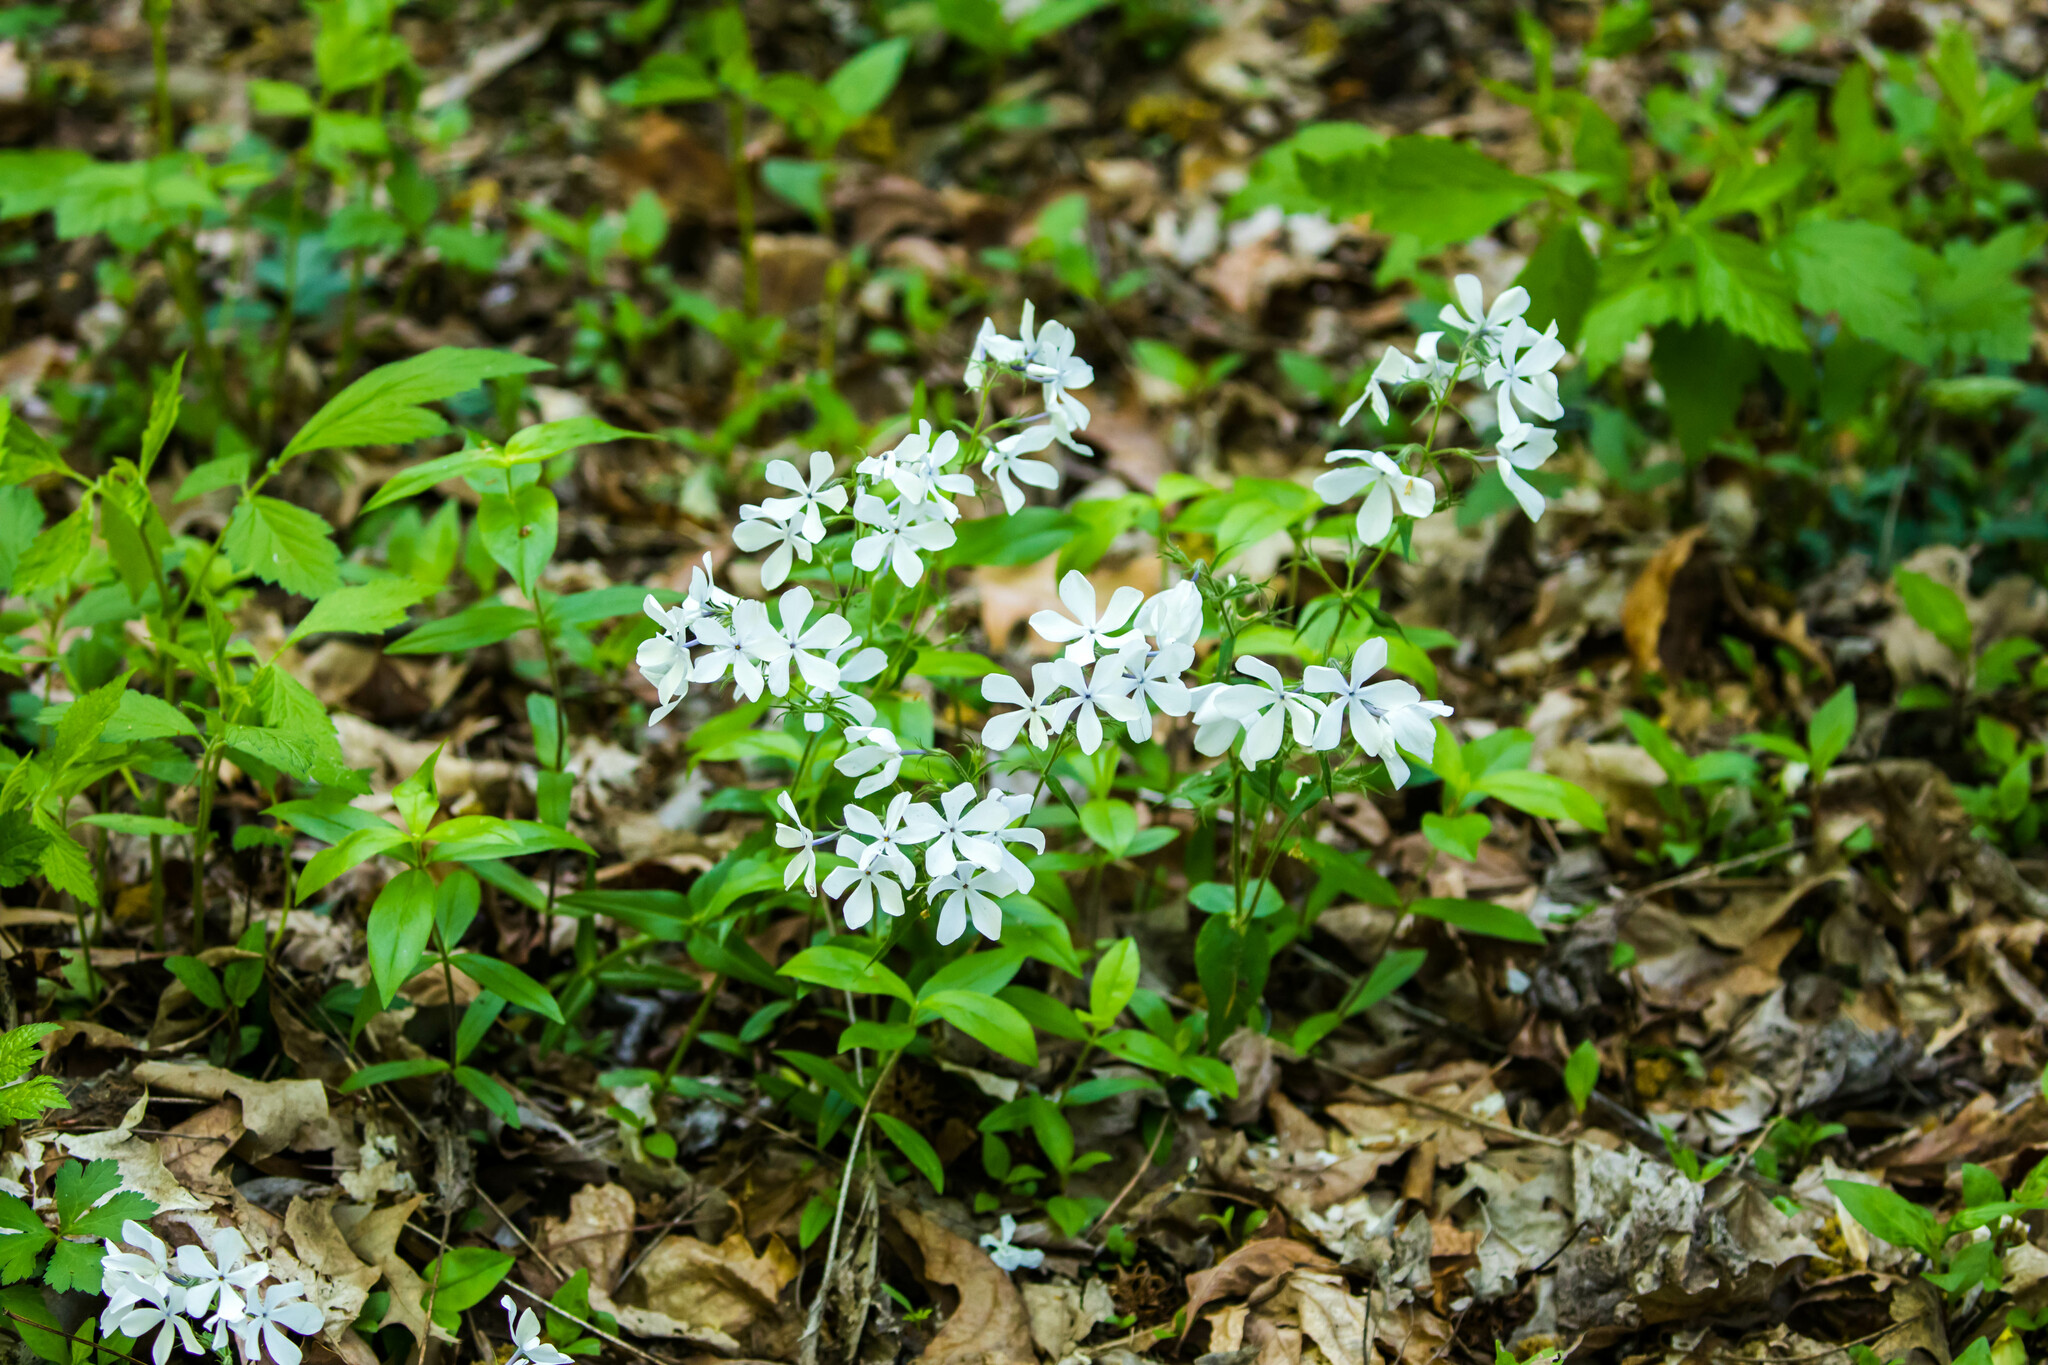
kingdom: Plantae
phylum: Tracheophyta
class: Magnoliopsida
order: Ericales
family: Polemoniaceae
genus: Phlox
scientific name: Phlox divaricata
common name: Blue phlox
